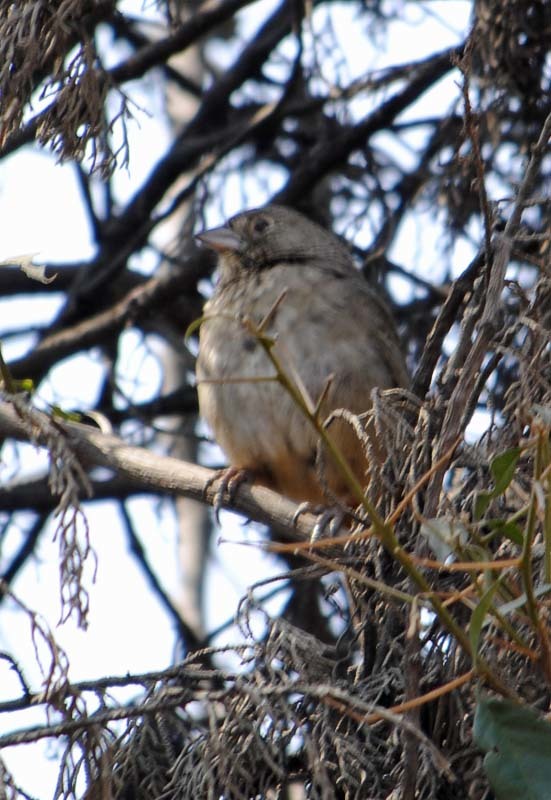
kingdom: Animalia
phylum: Chordata
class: Aves
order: Passeriformes
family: Passerellidae
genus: Melozone
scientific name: Melozone fusca
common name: Canyon towhee
